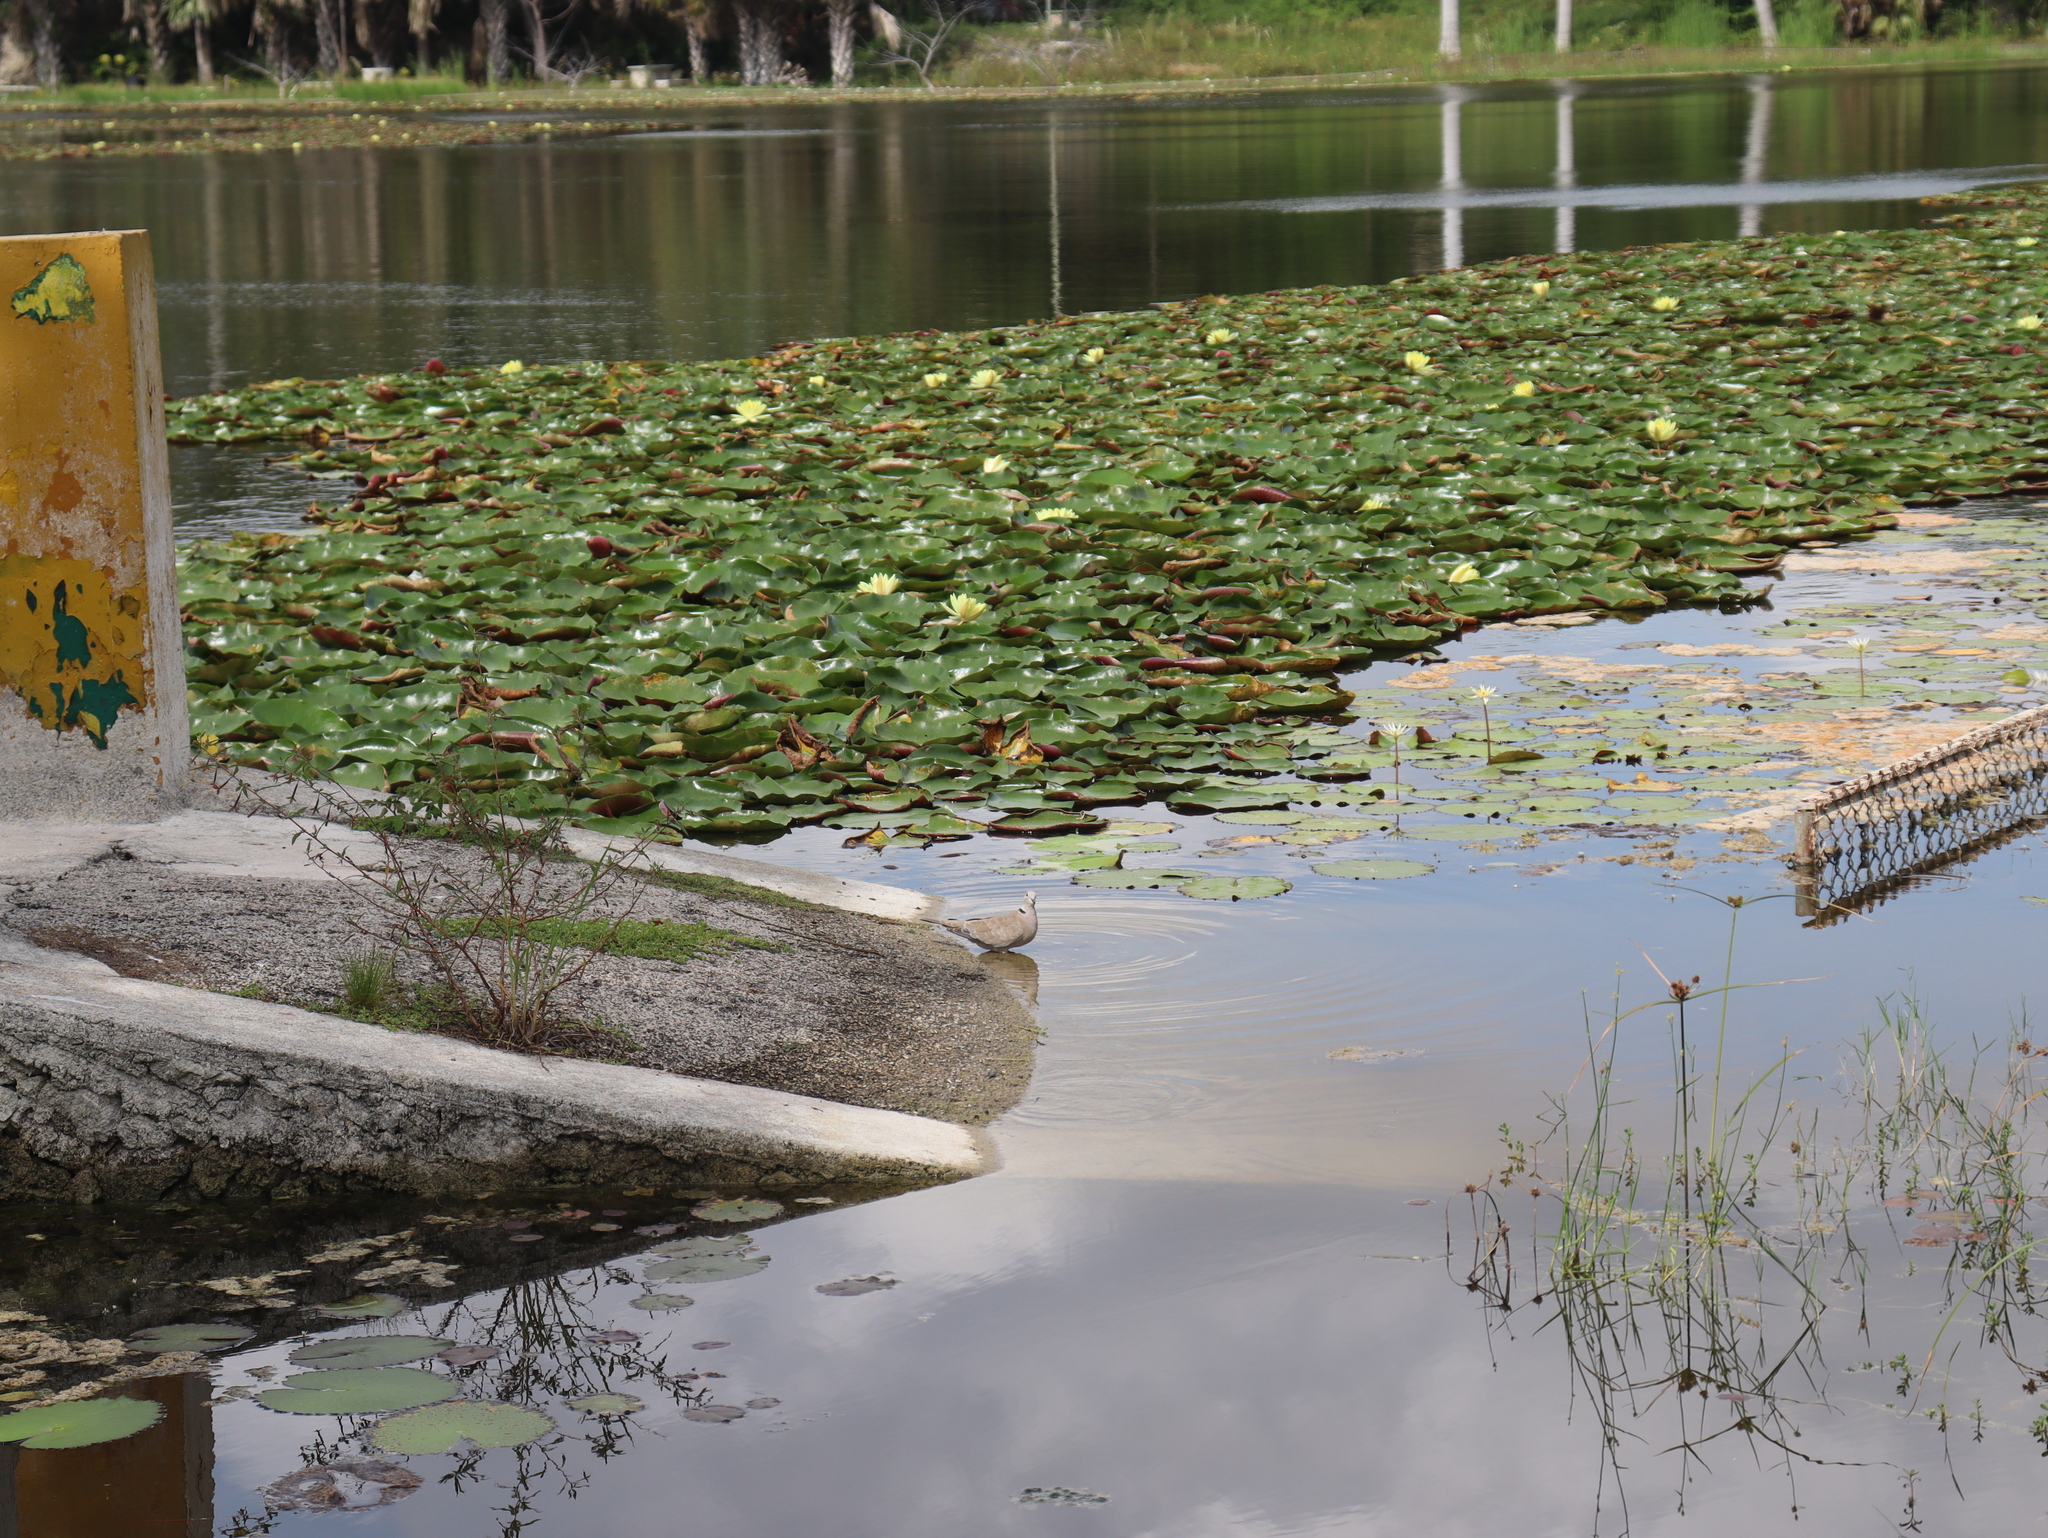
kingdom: Animalia
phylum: Chordata
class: Aves
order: Columbiformes
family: Columbidae
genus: Streptopelia
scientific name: Streptopelia decaocto
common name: Eurasian collared dove
